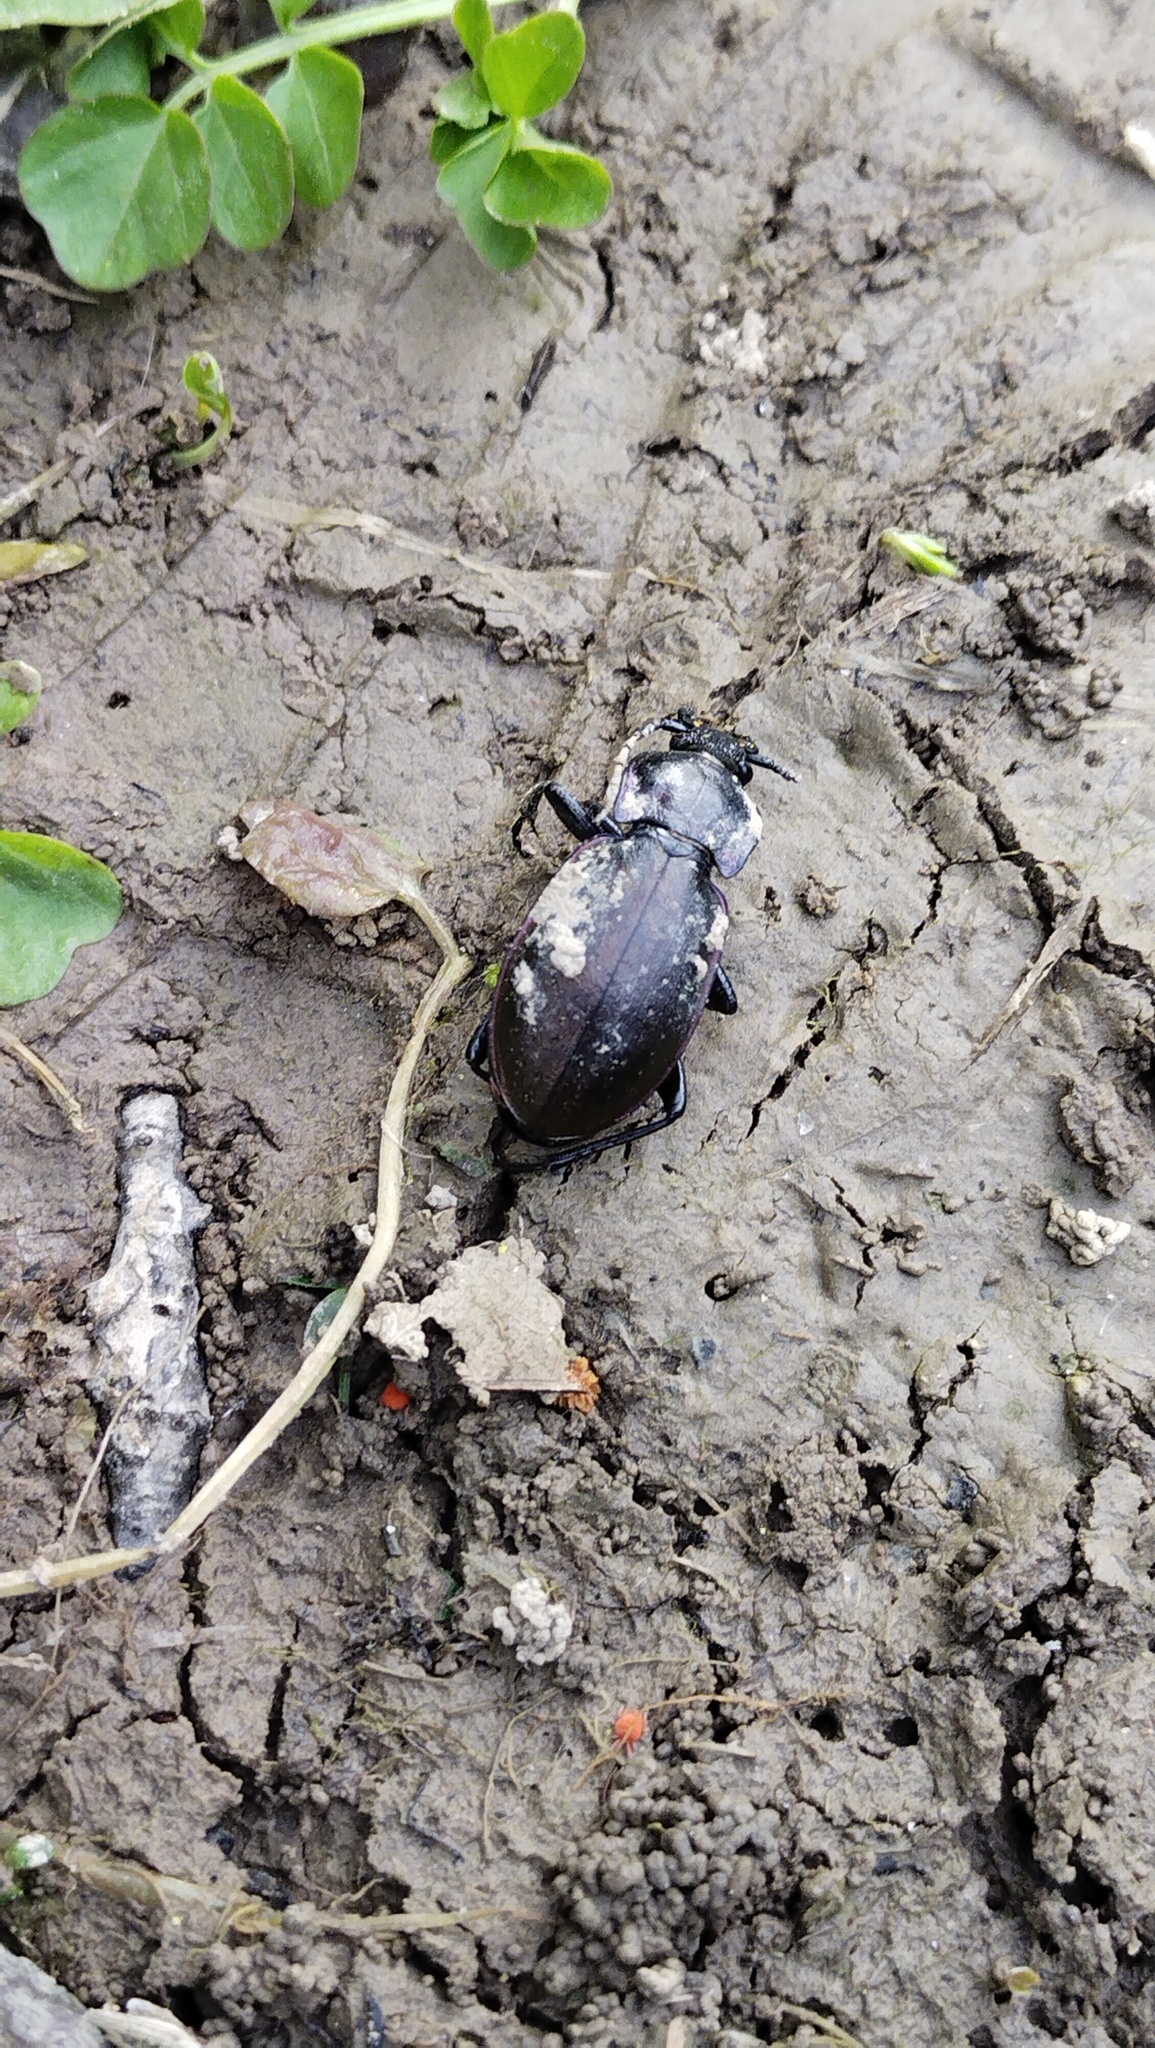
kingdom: Animalia
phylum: Arthropoda
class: Insecta
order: Coleoptera
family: Carabidae
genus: Carabus
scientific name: Carabus nemoralis
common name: European ground beetle
